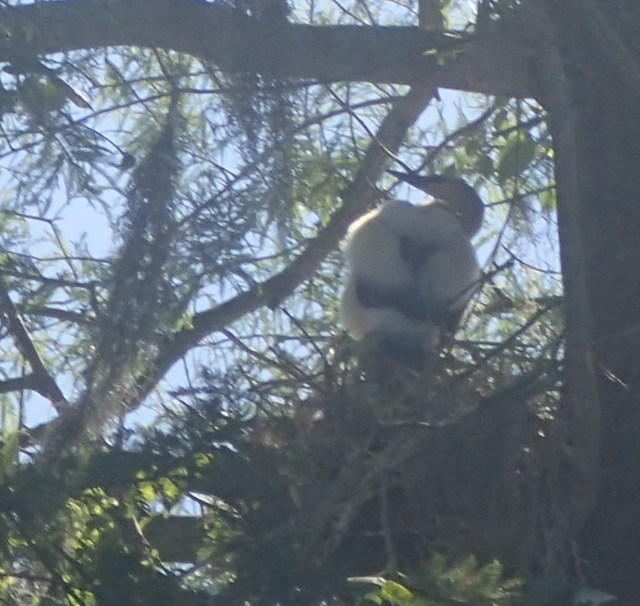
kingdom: Animalia
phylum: Chordata
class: Aves
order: Suliformes
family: Anhingidae
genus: Anhinga
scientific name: Anhinga anhinga
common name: Anhinga
